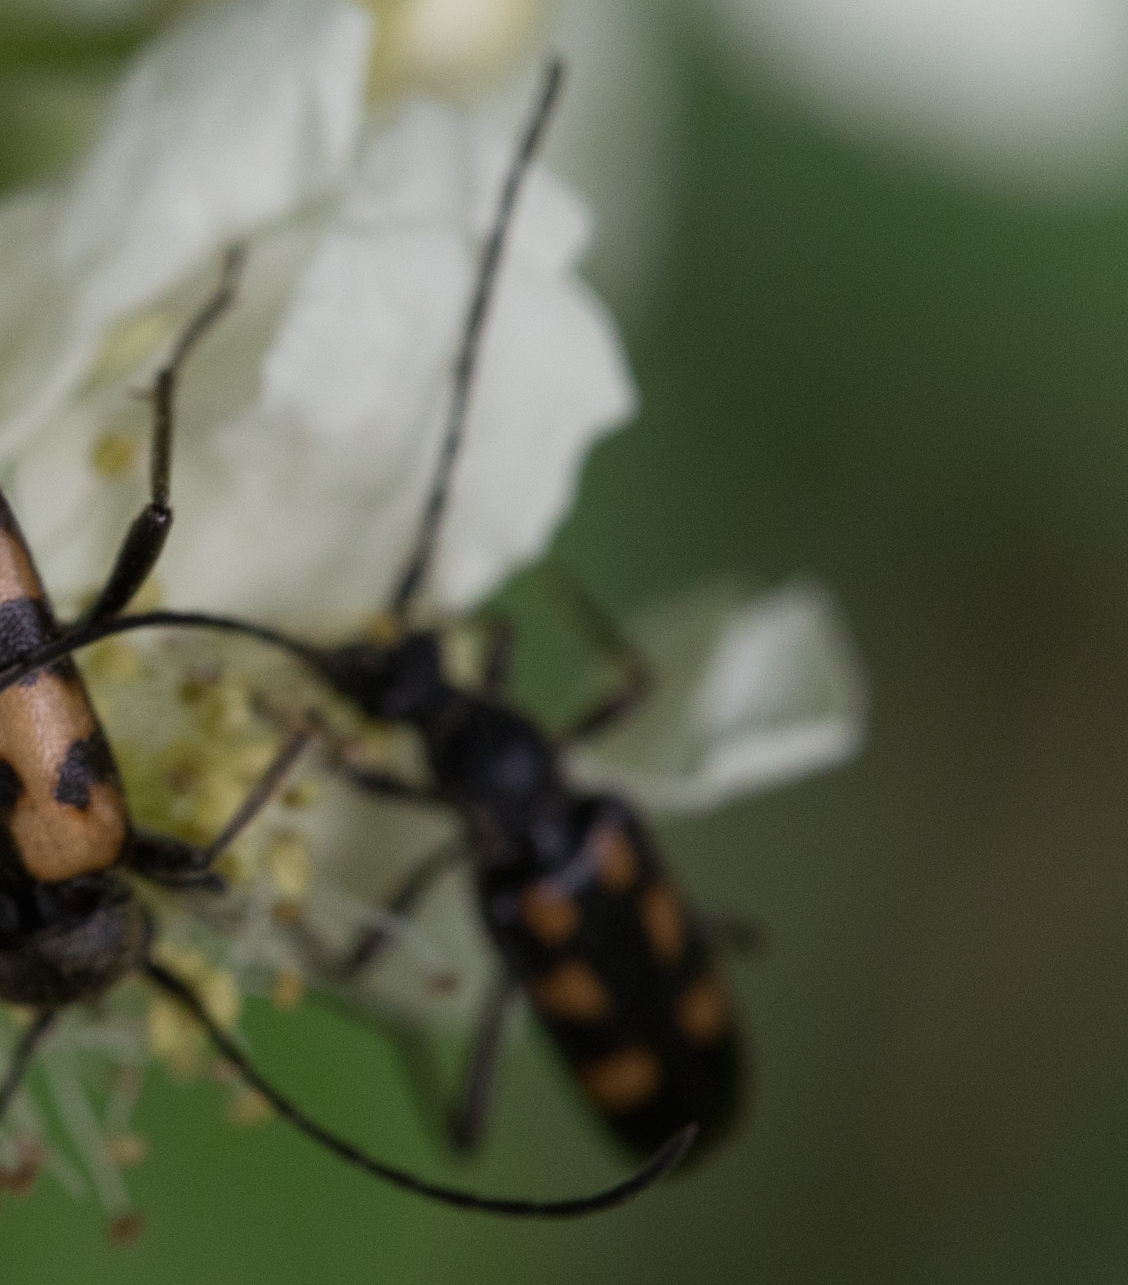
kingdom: Animalia
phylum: Arthropoda
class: Insecta
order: Coleoptera
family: Cerambycidae
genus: Anoplodera
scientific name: Anoplodera sexguttata
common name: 6 spotted longhorn
